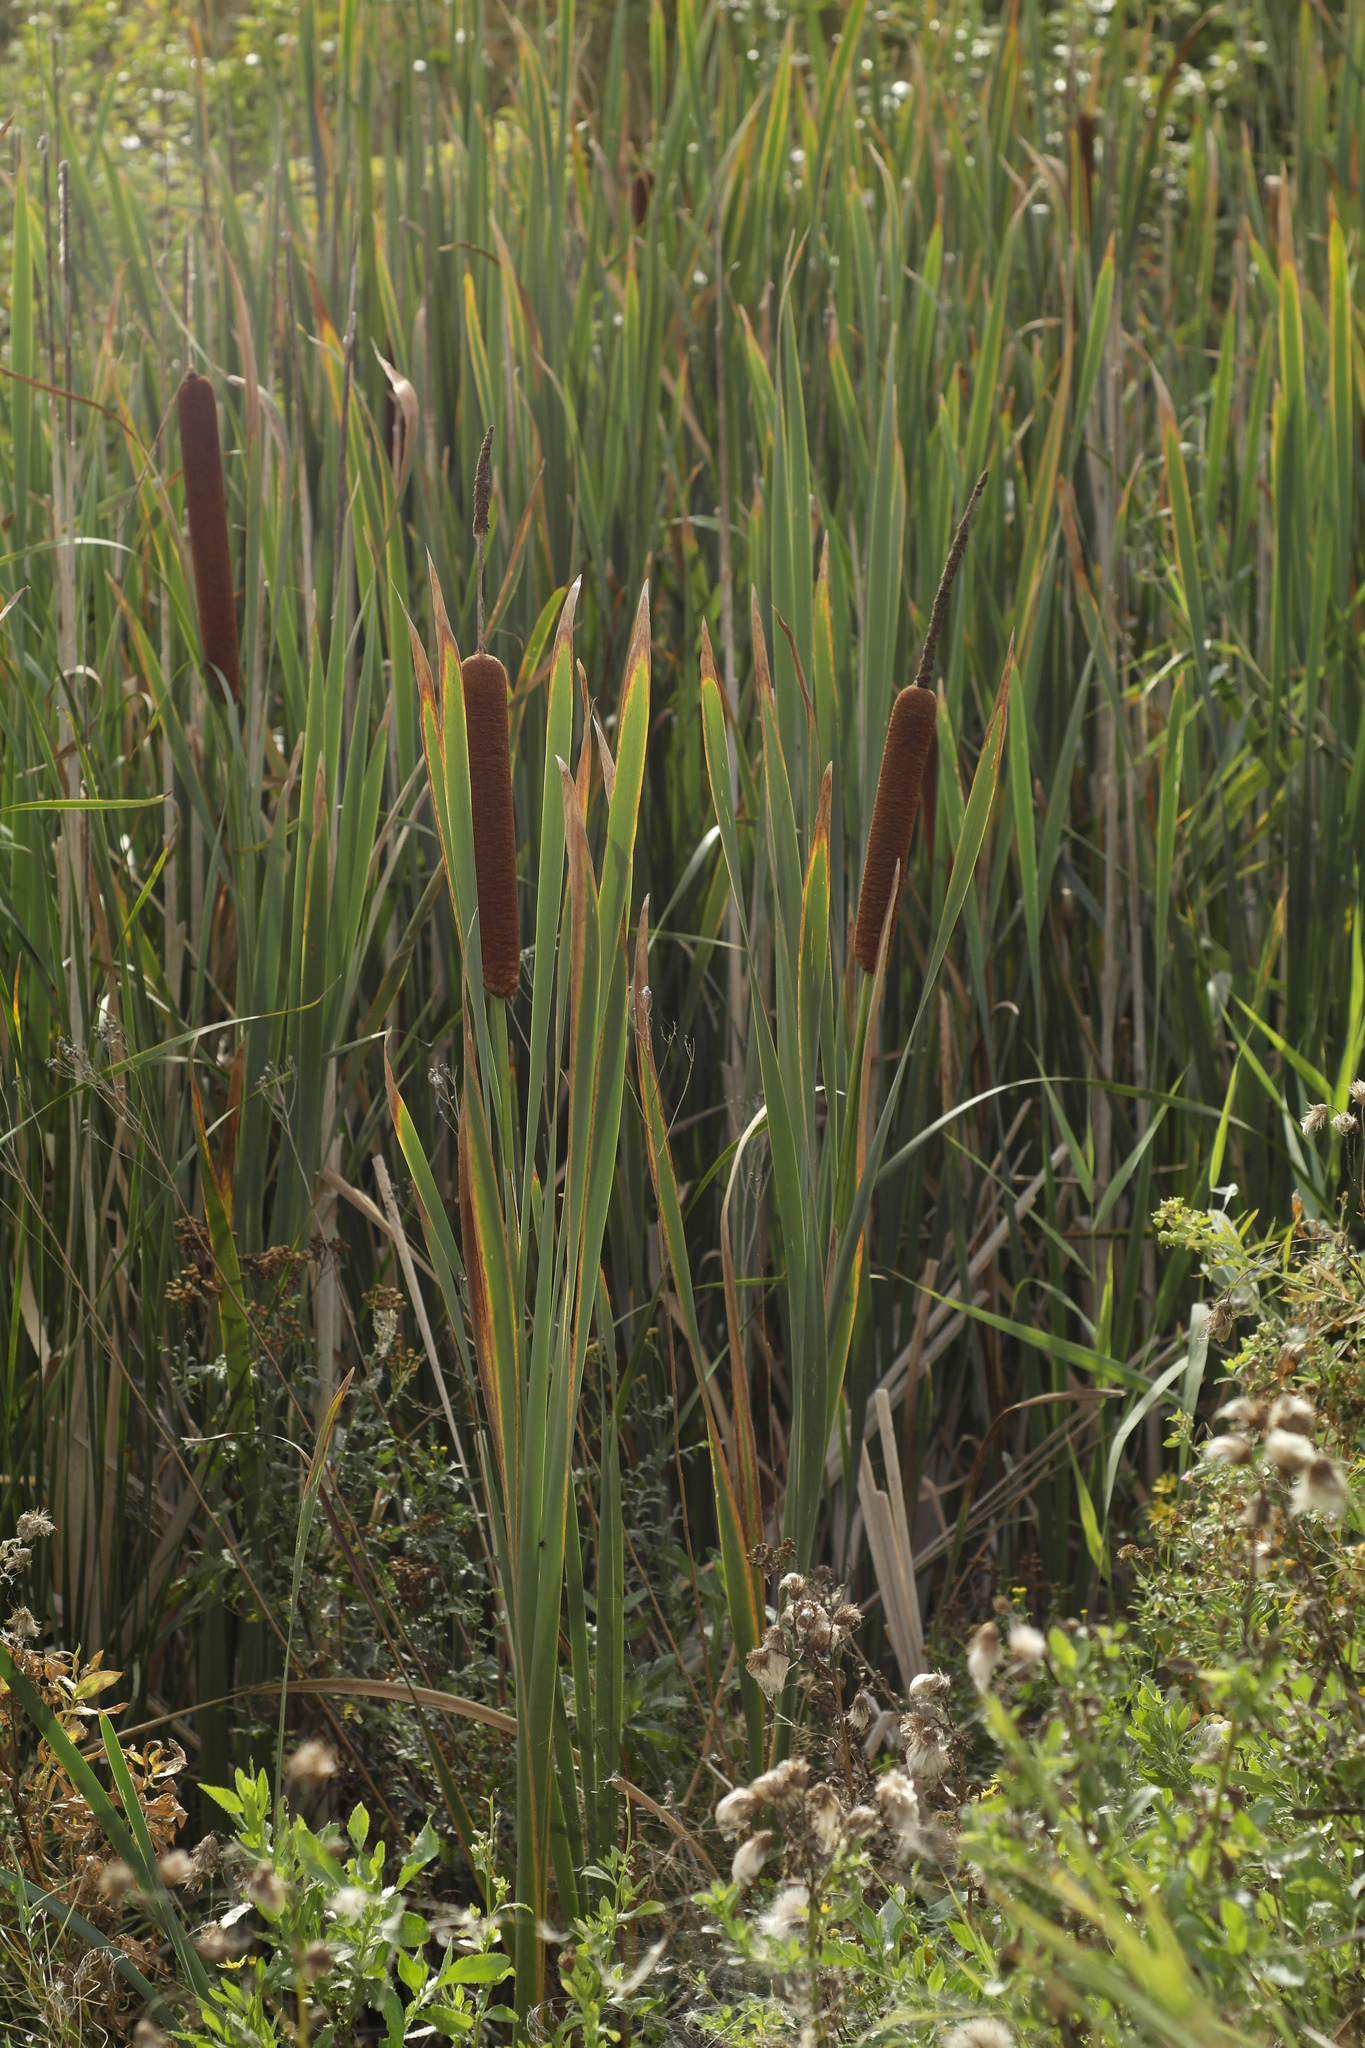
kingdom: Plantae
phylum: Tracheophyta
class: Liliopsida
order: Poales
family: Typhaceae
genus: Typha
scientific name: Typha latifolia
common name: Broadleaf cattail
